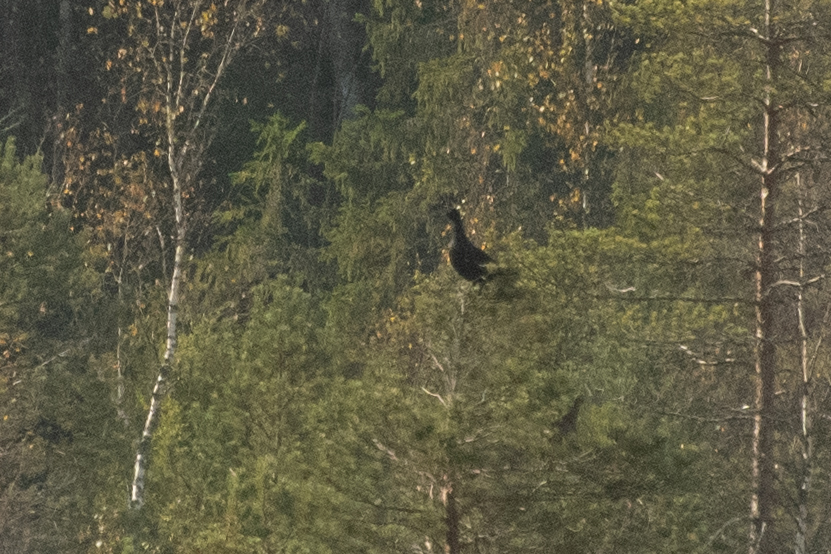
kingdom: Animalia
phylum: Chordata
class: Aves
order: Galliformes
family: Phasianidae
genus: Lyrurus
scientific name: Lyrurus tetrix
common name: Black grouse
